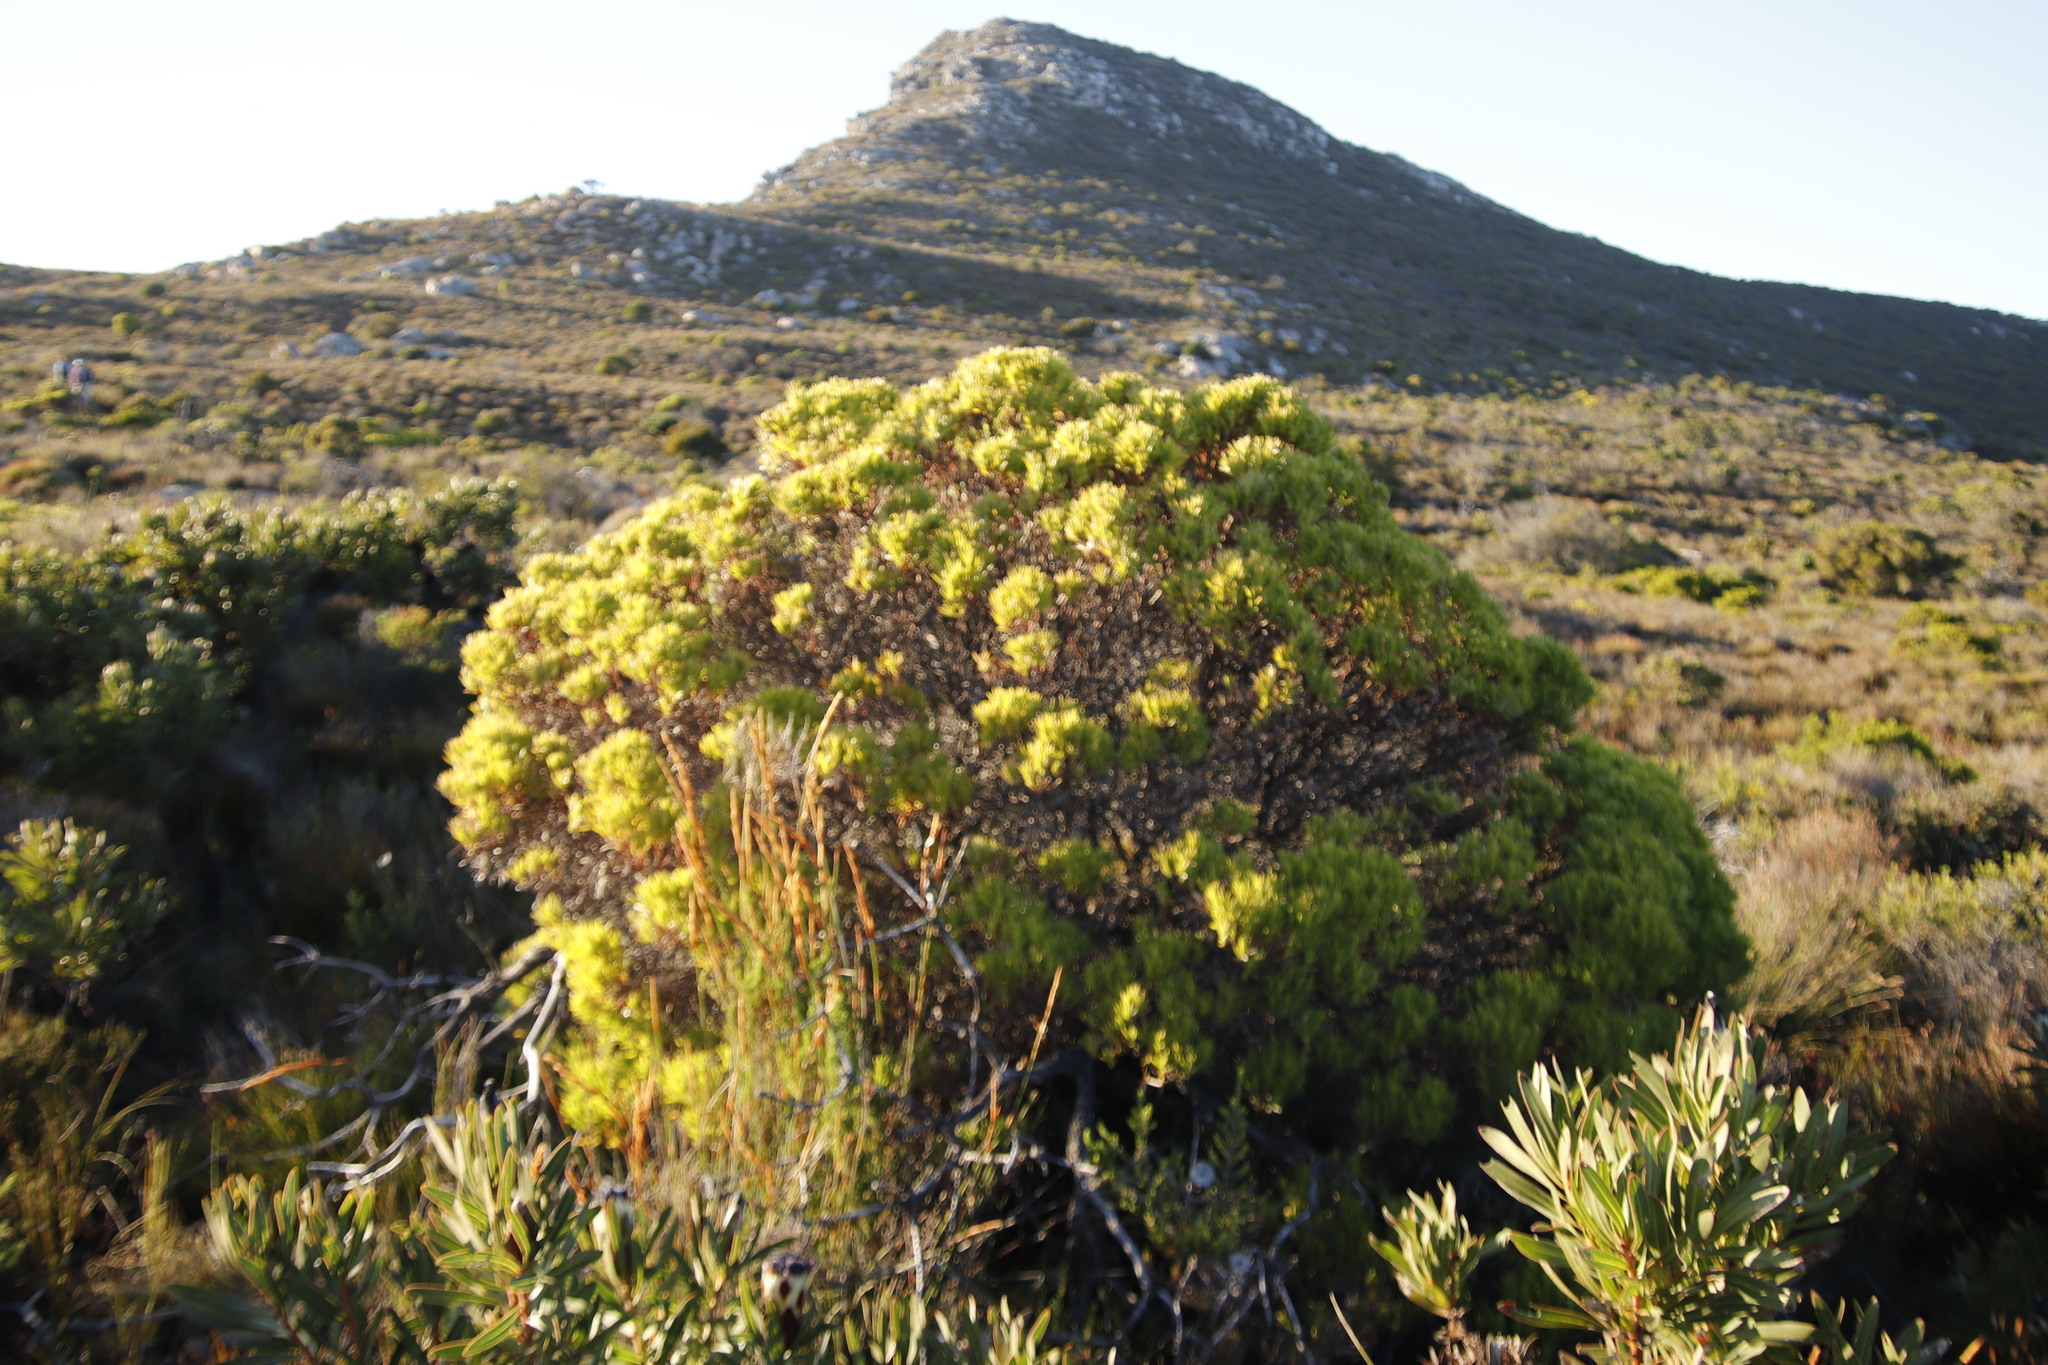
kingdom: Plantae
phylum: Tracheophyta
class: Magnoliopsida
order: Proteales
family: Proteaceae
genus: Leucadendron
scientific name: Leucadendron xanthoconus
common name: Sickle-leaf conebush
